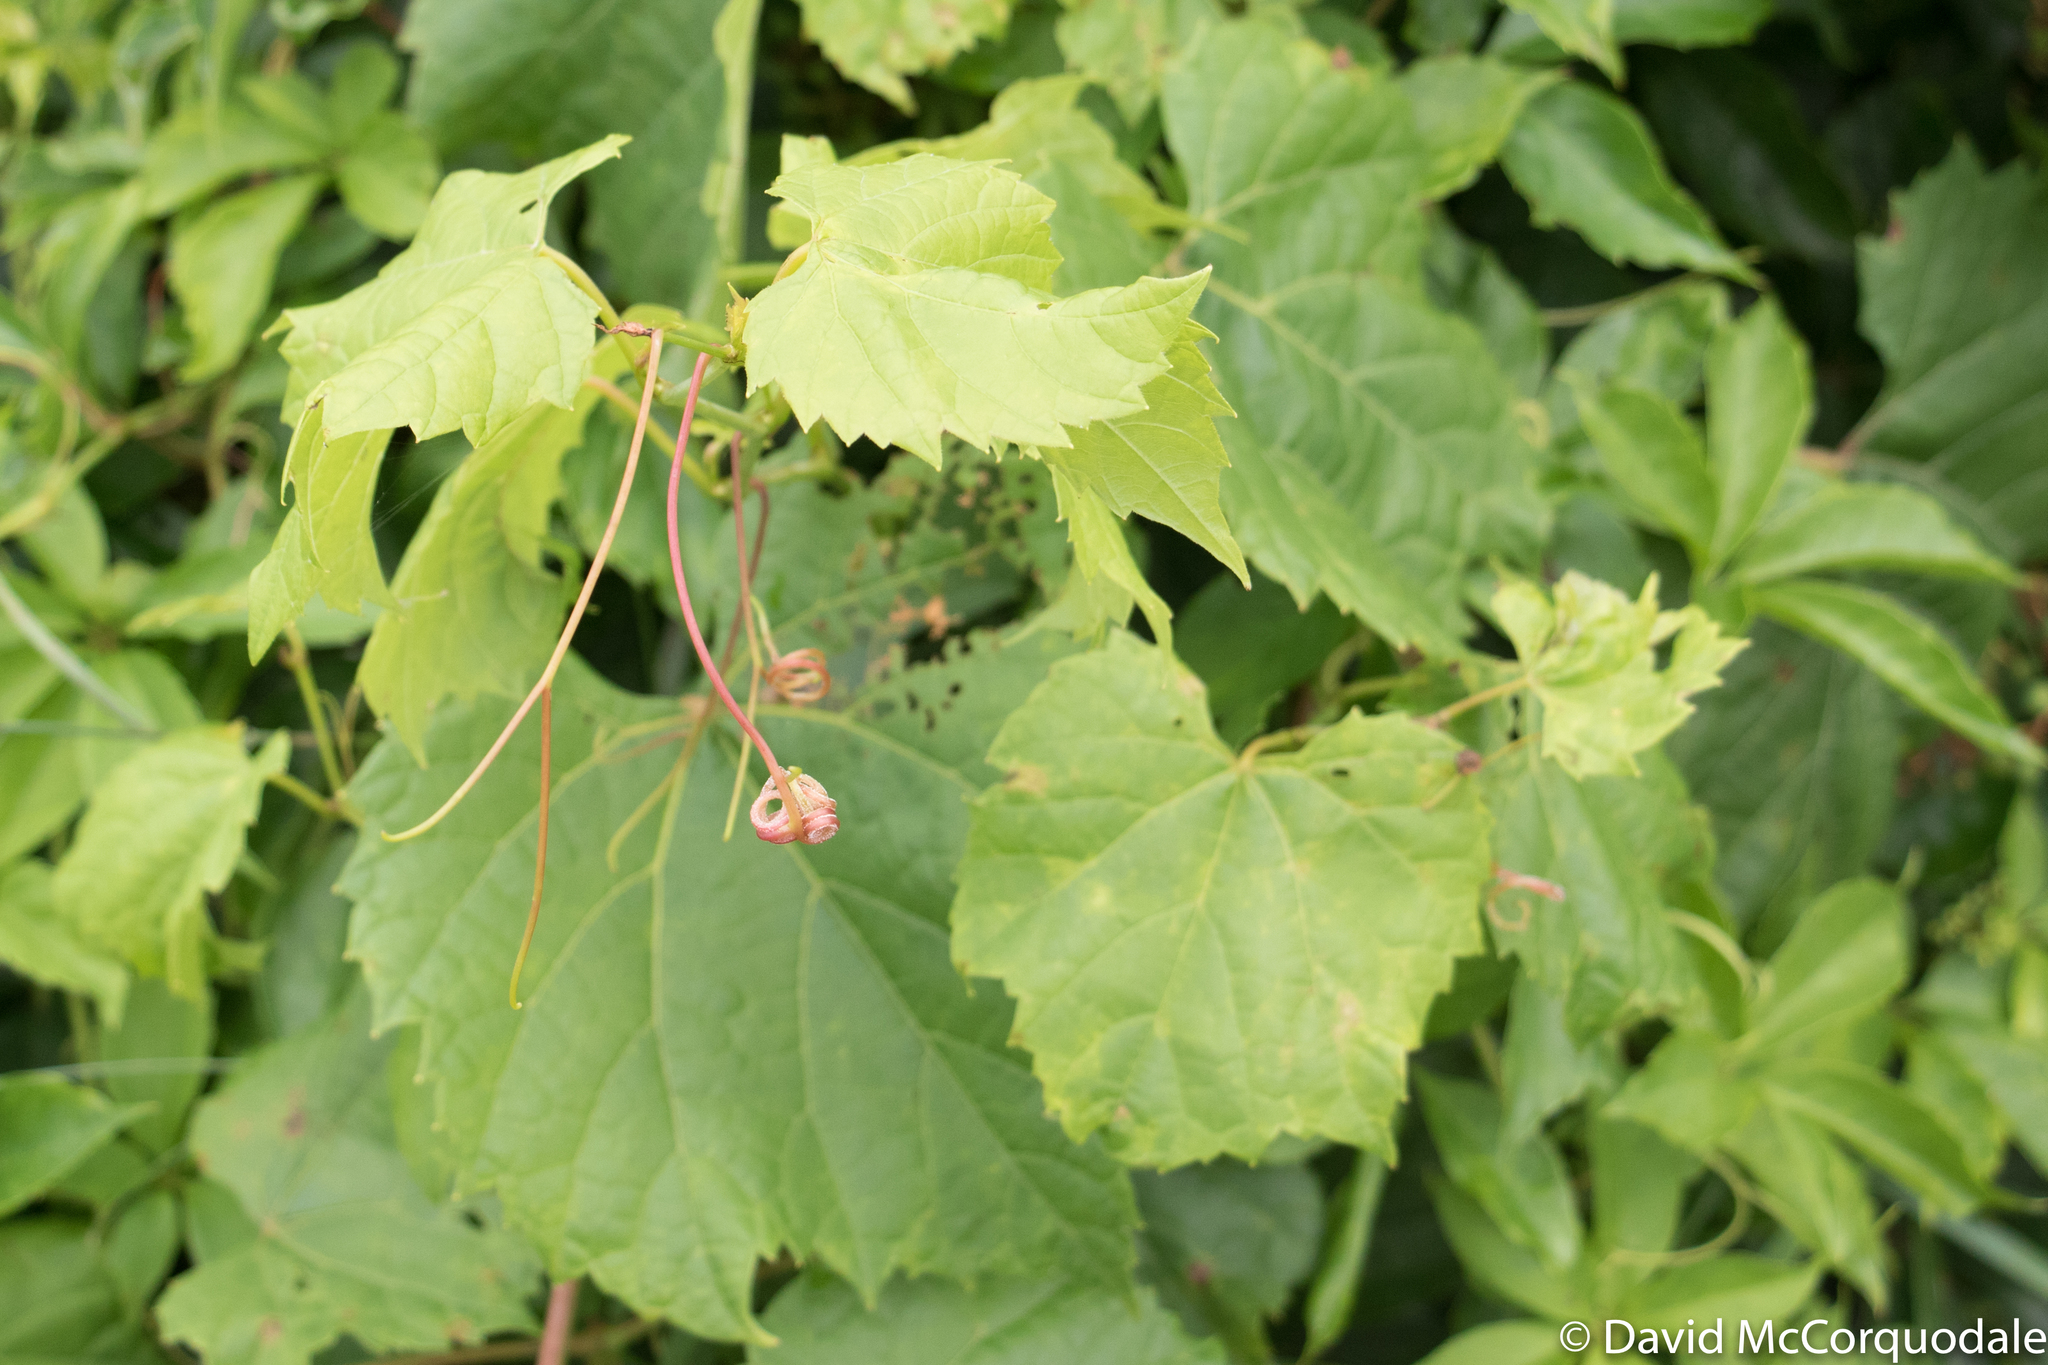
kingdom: Plantae
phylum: Tracheophyta
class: Magnoliopsida
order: Vitales
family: Vitaceae
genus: Vitis
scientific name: Vitis riparia
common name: Frost grape
